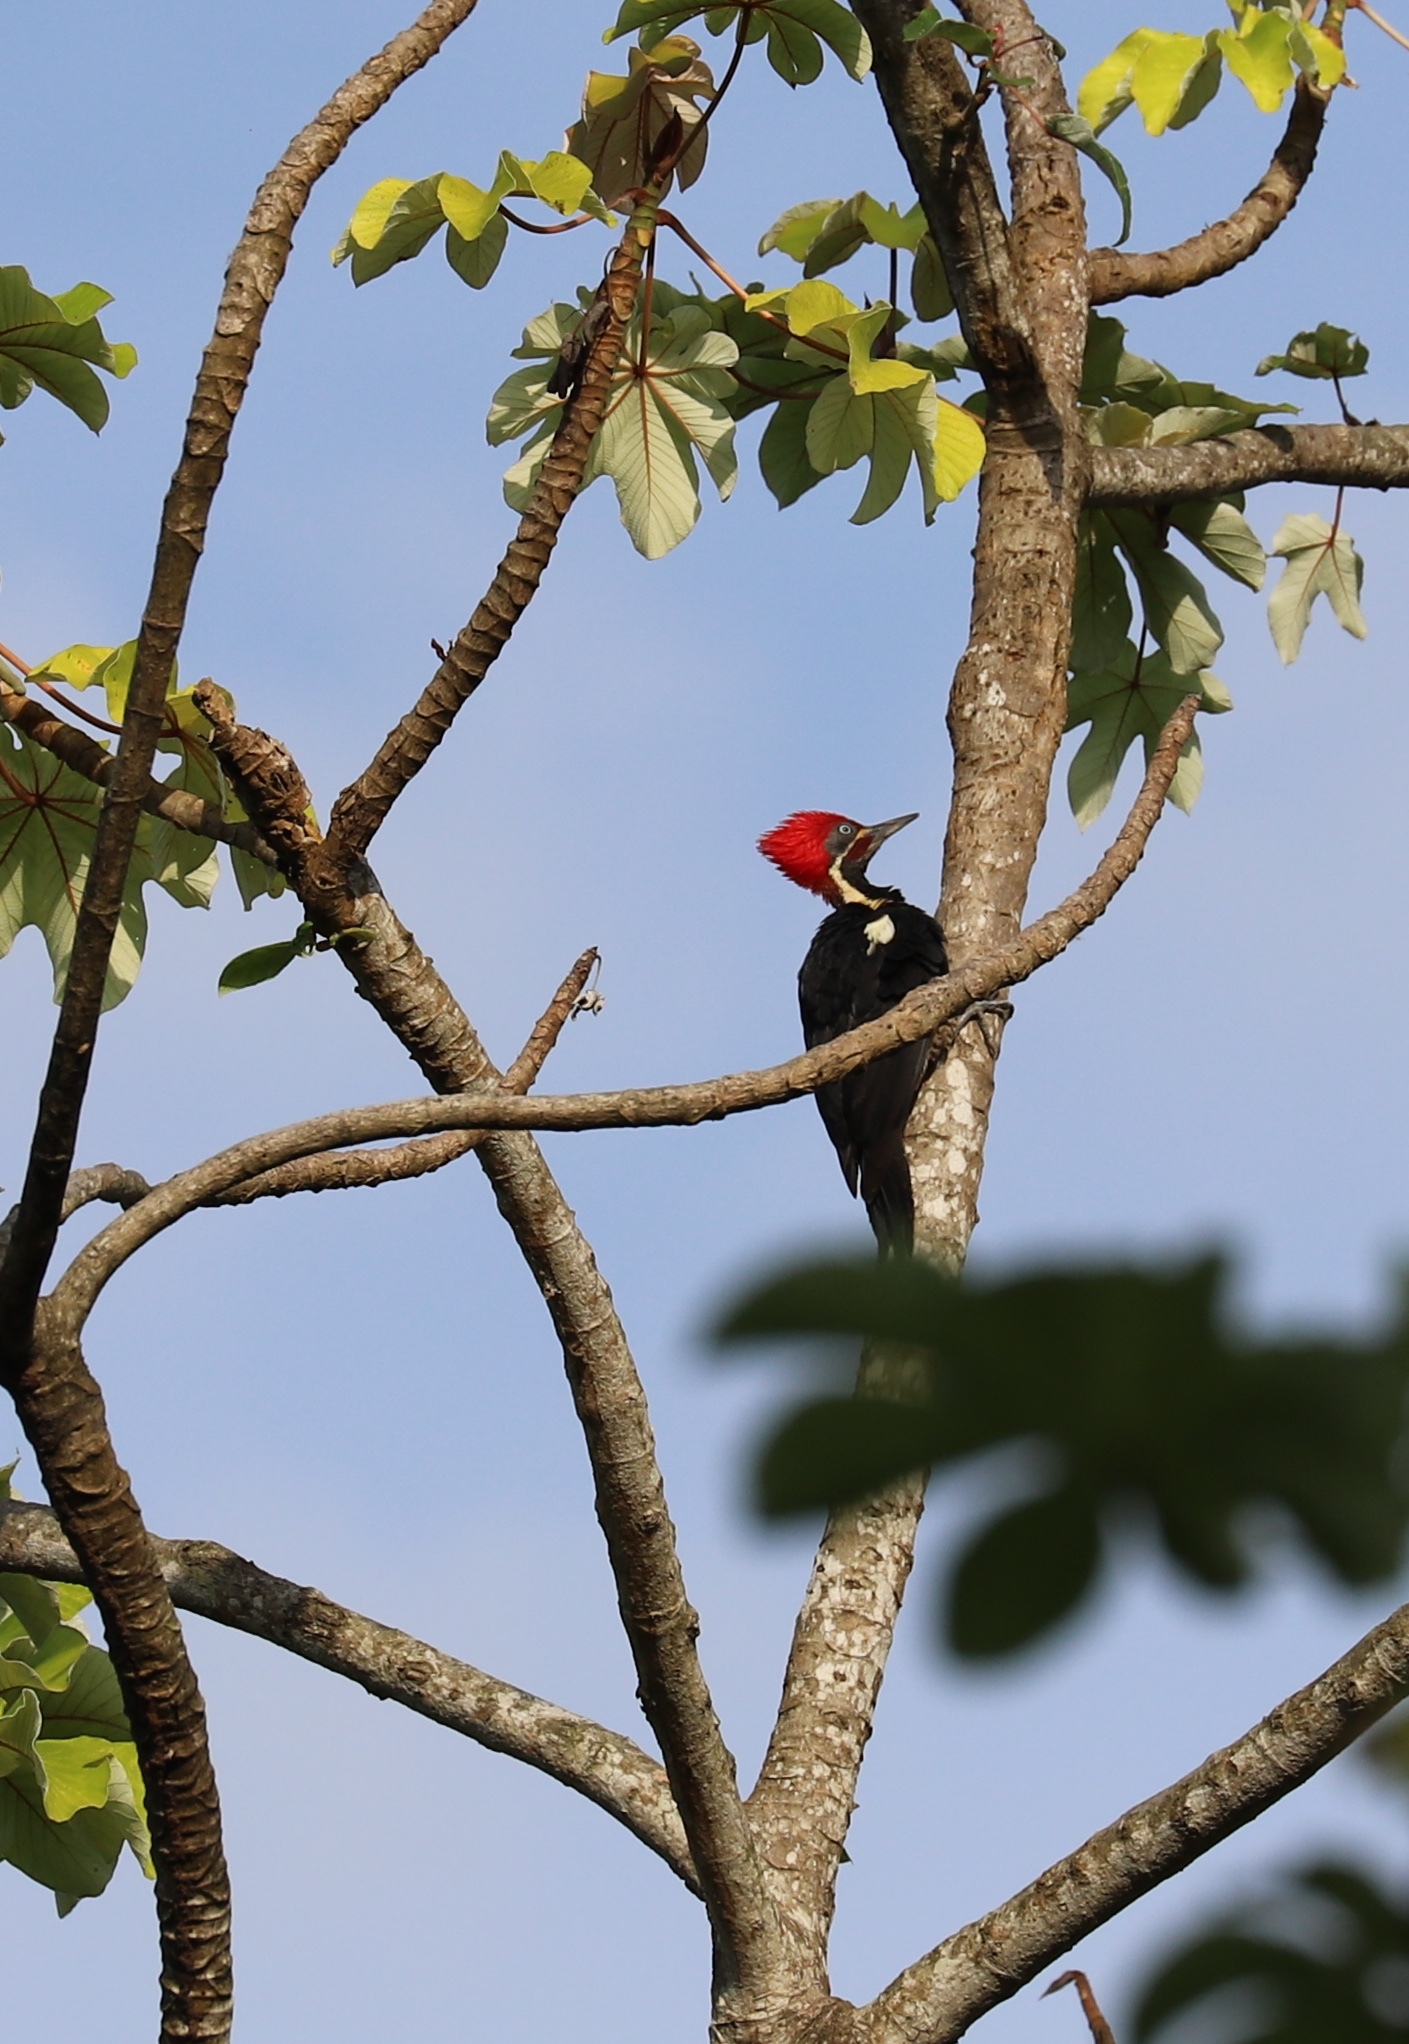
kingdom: Animalia
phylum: Chordata
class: Aves
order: Piciformes
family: Picidae
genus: Dryocopus
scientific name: Dryocopus lineatus
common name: Lineated woodpecker
